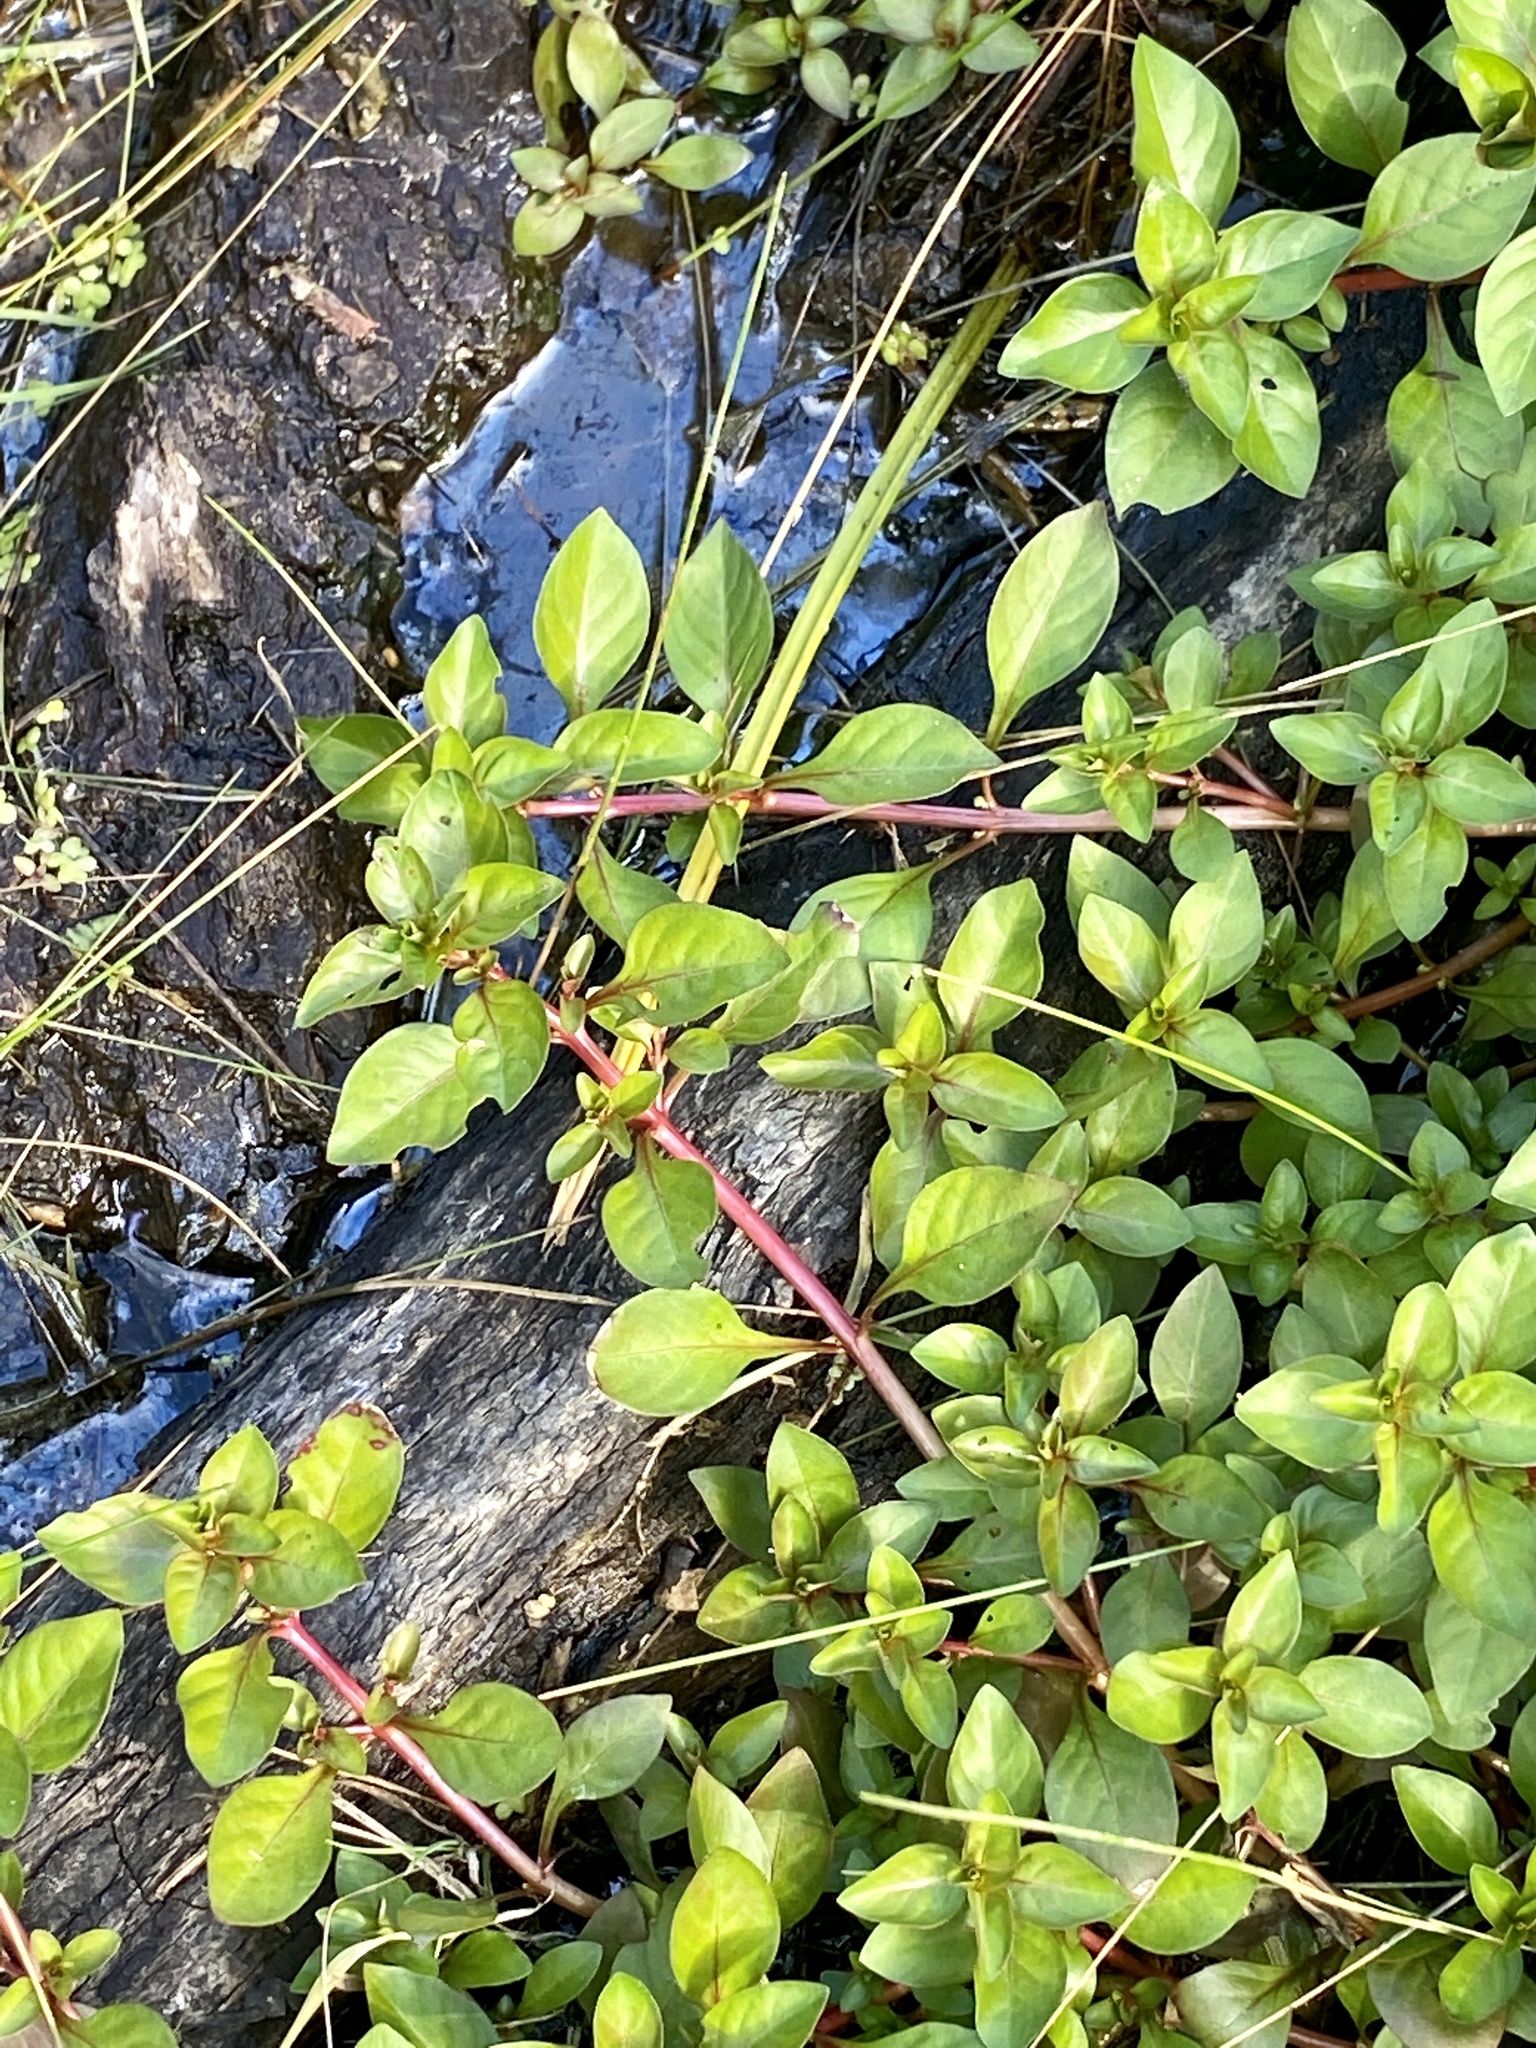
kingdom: Plantae
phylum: Tracheophyta
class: Magnoliopsida
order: Myrtales
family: Onagraceae
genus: Ludwigia
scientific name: Ludwigia palustris
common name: Hampshire-purslane
